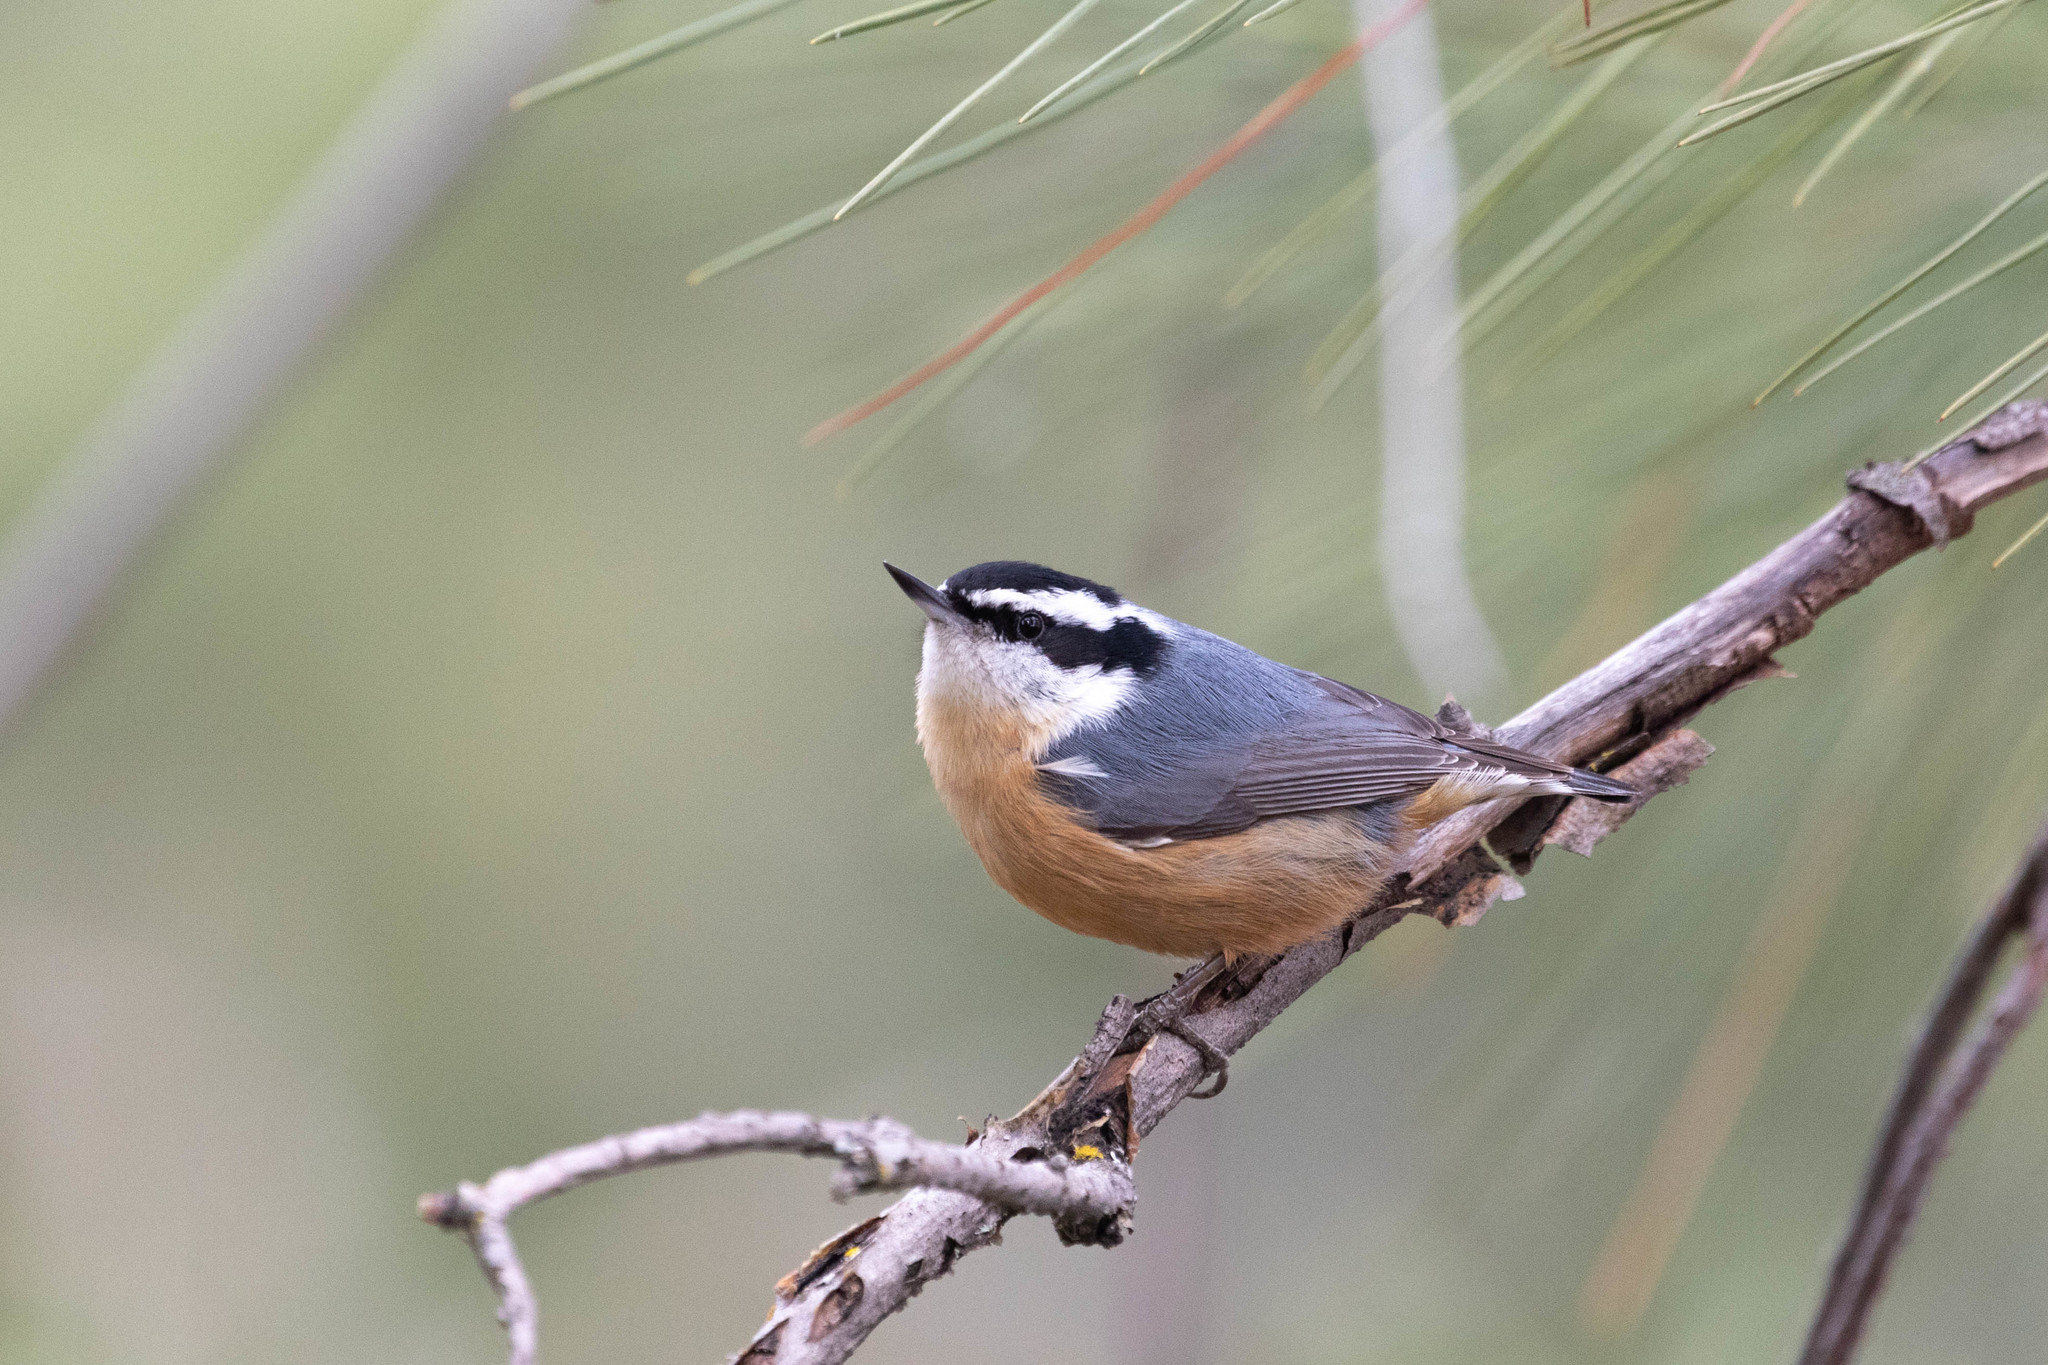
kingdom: Animalia
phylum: Chordata
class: Aves
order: Passeriformes
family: Sittidae
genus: Sitta
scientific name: Sitta canadensis
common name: Red-breasted nuthatch
